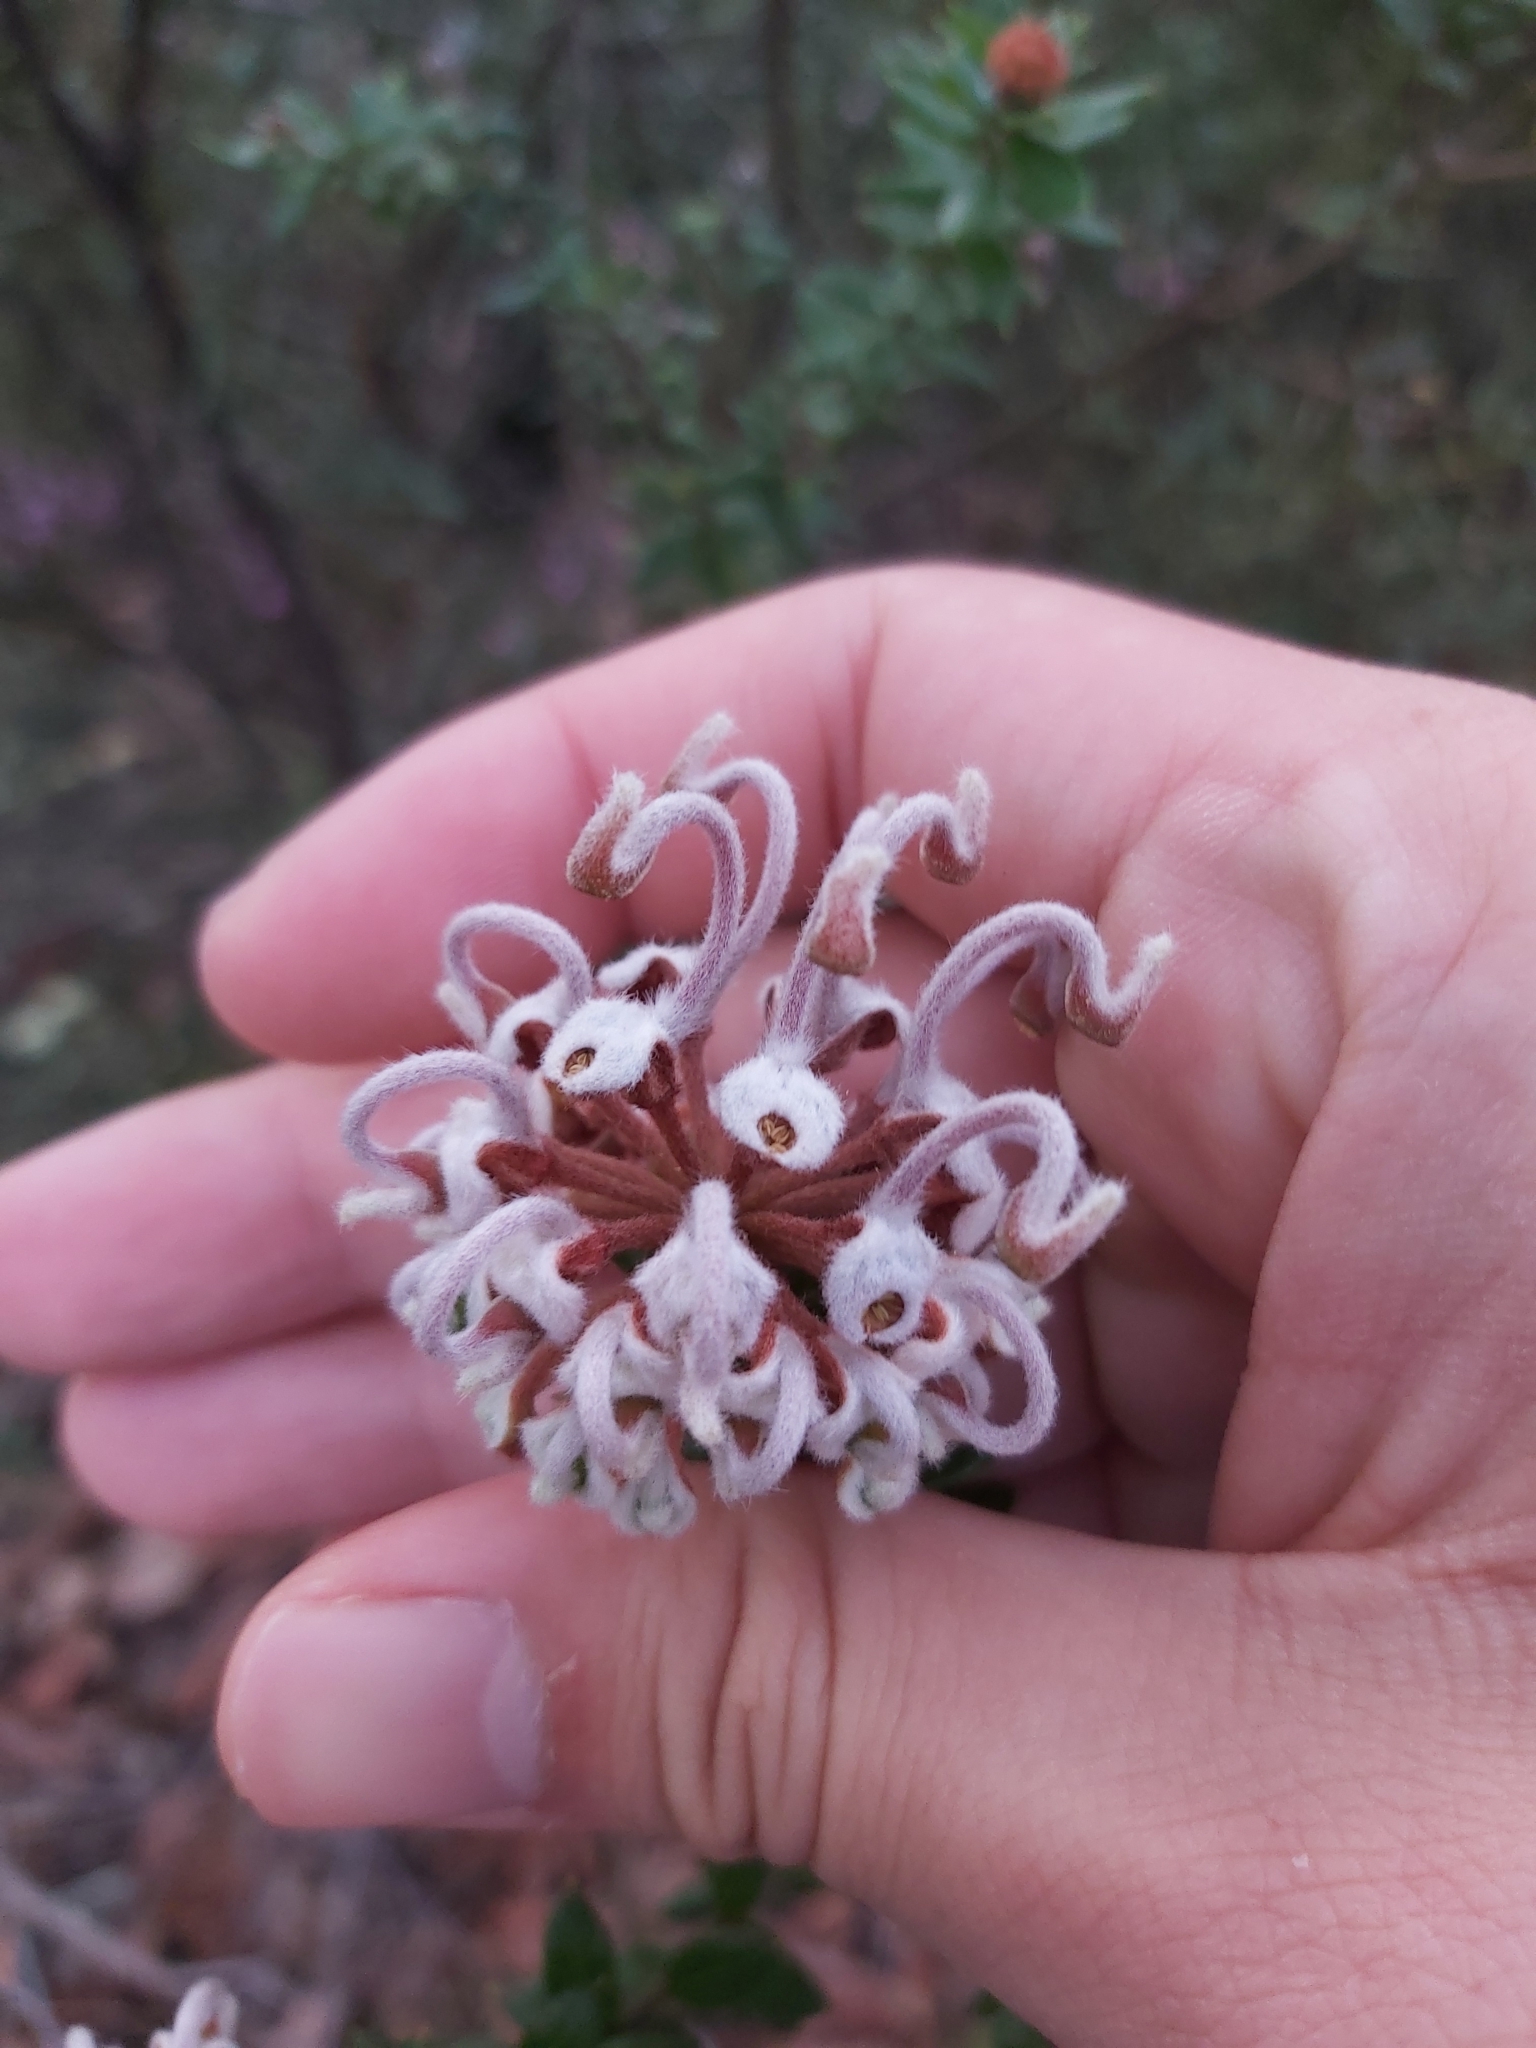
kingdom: Plantae
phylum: Tracheophyta
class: Magnoliopsida
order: Proteales
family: Proteaceae
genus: Grevillea
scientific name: Grevillea buxifolia
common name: Grey spiderflower
